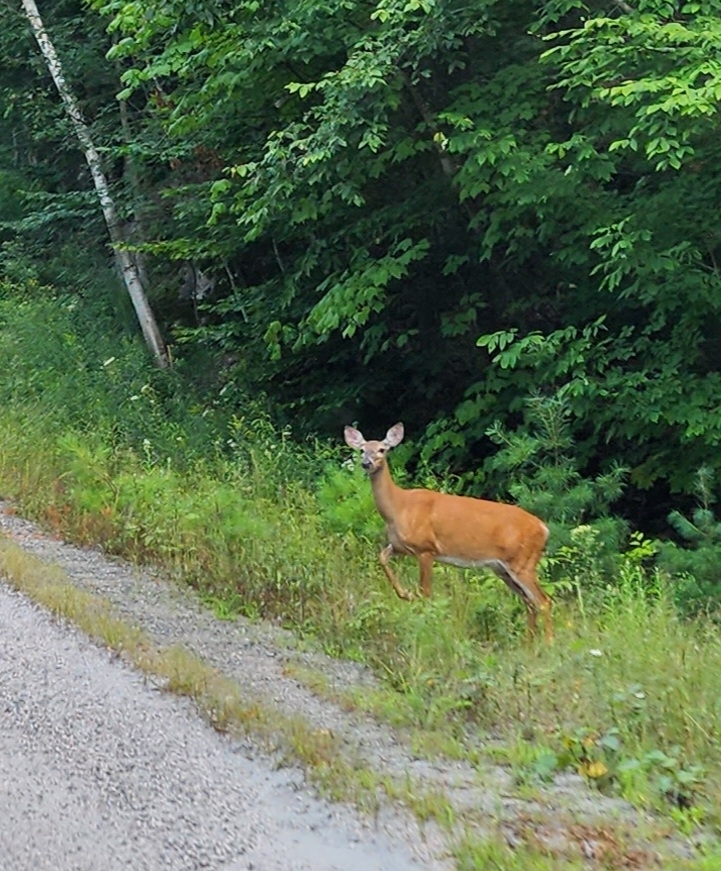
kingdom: Animalia
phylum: Chordata
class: Mammalia
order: Artiodactyla
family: Cervidae
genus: Odocoileus
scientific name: Odocoileus virginianus
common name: White-tailed deer
